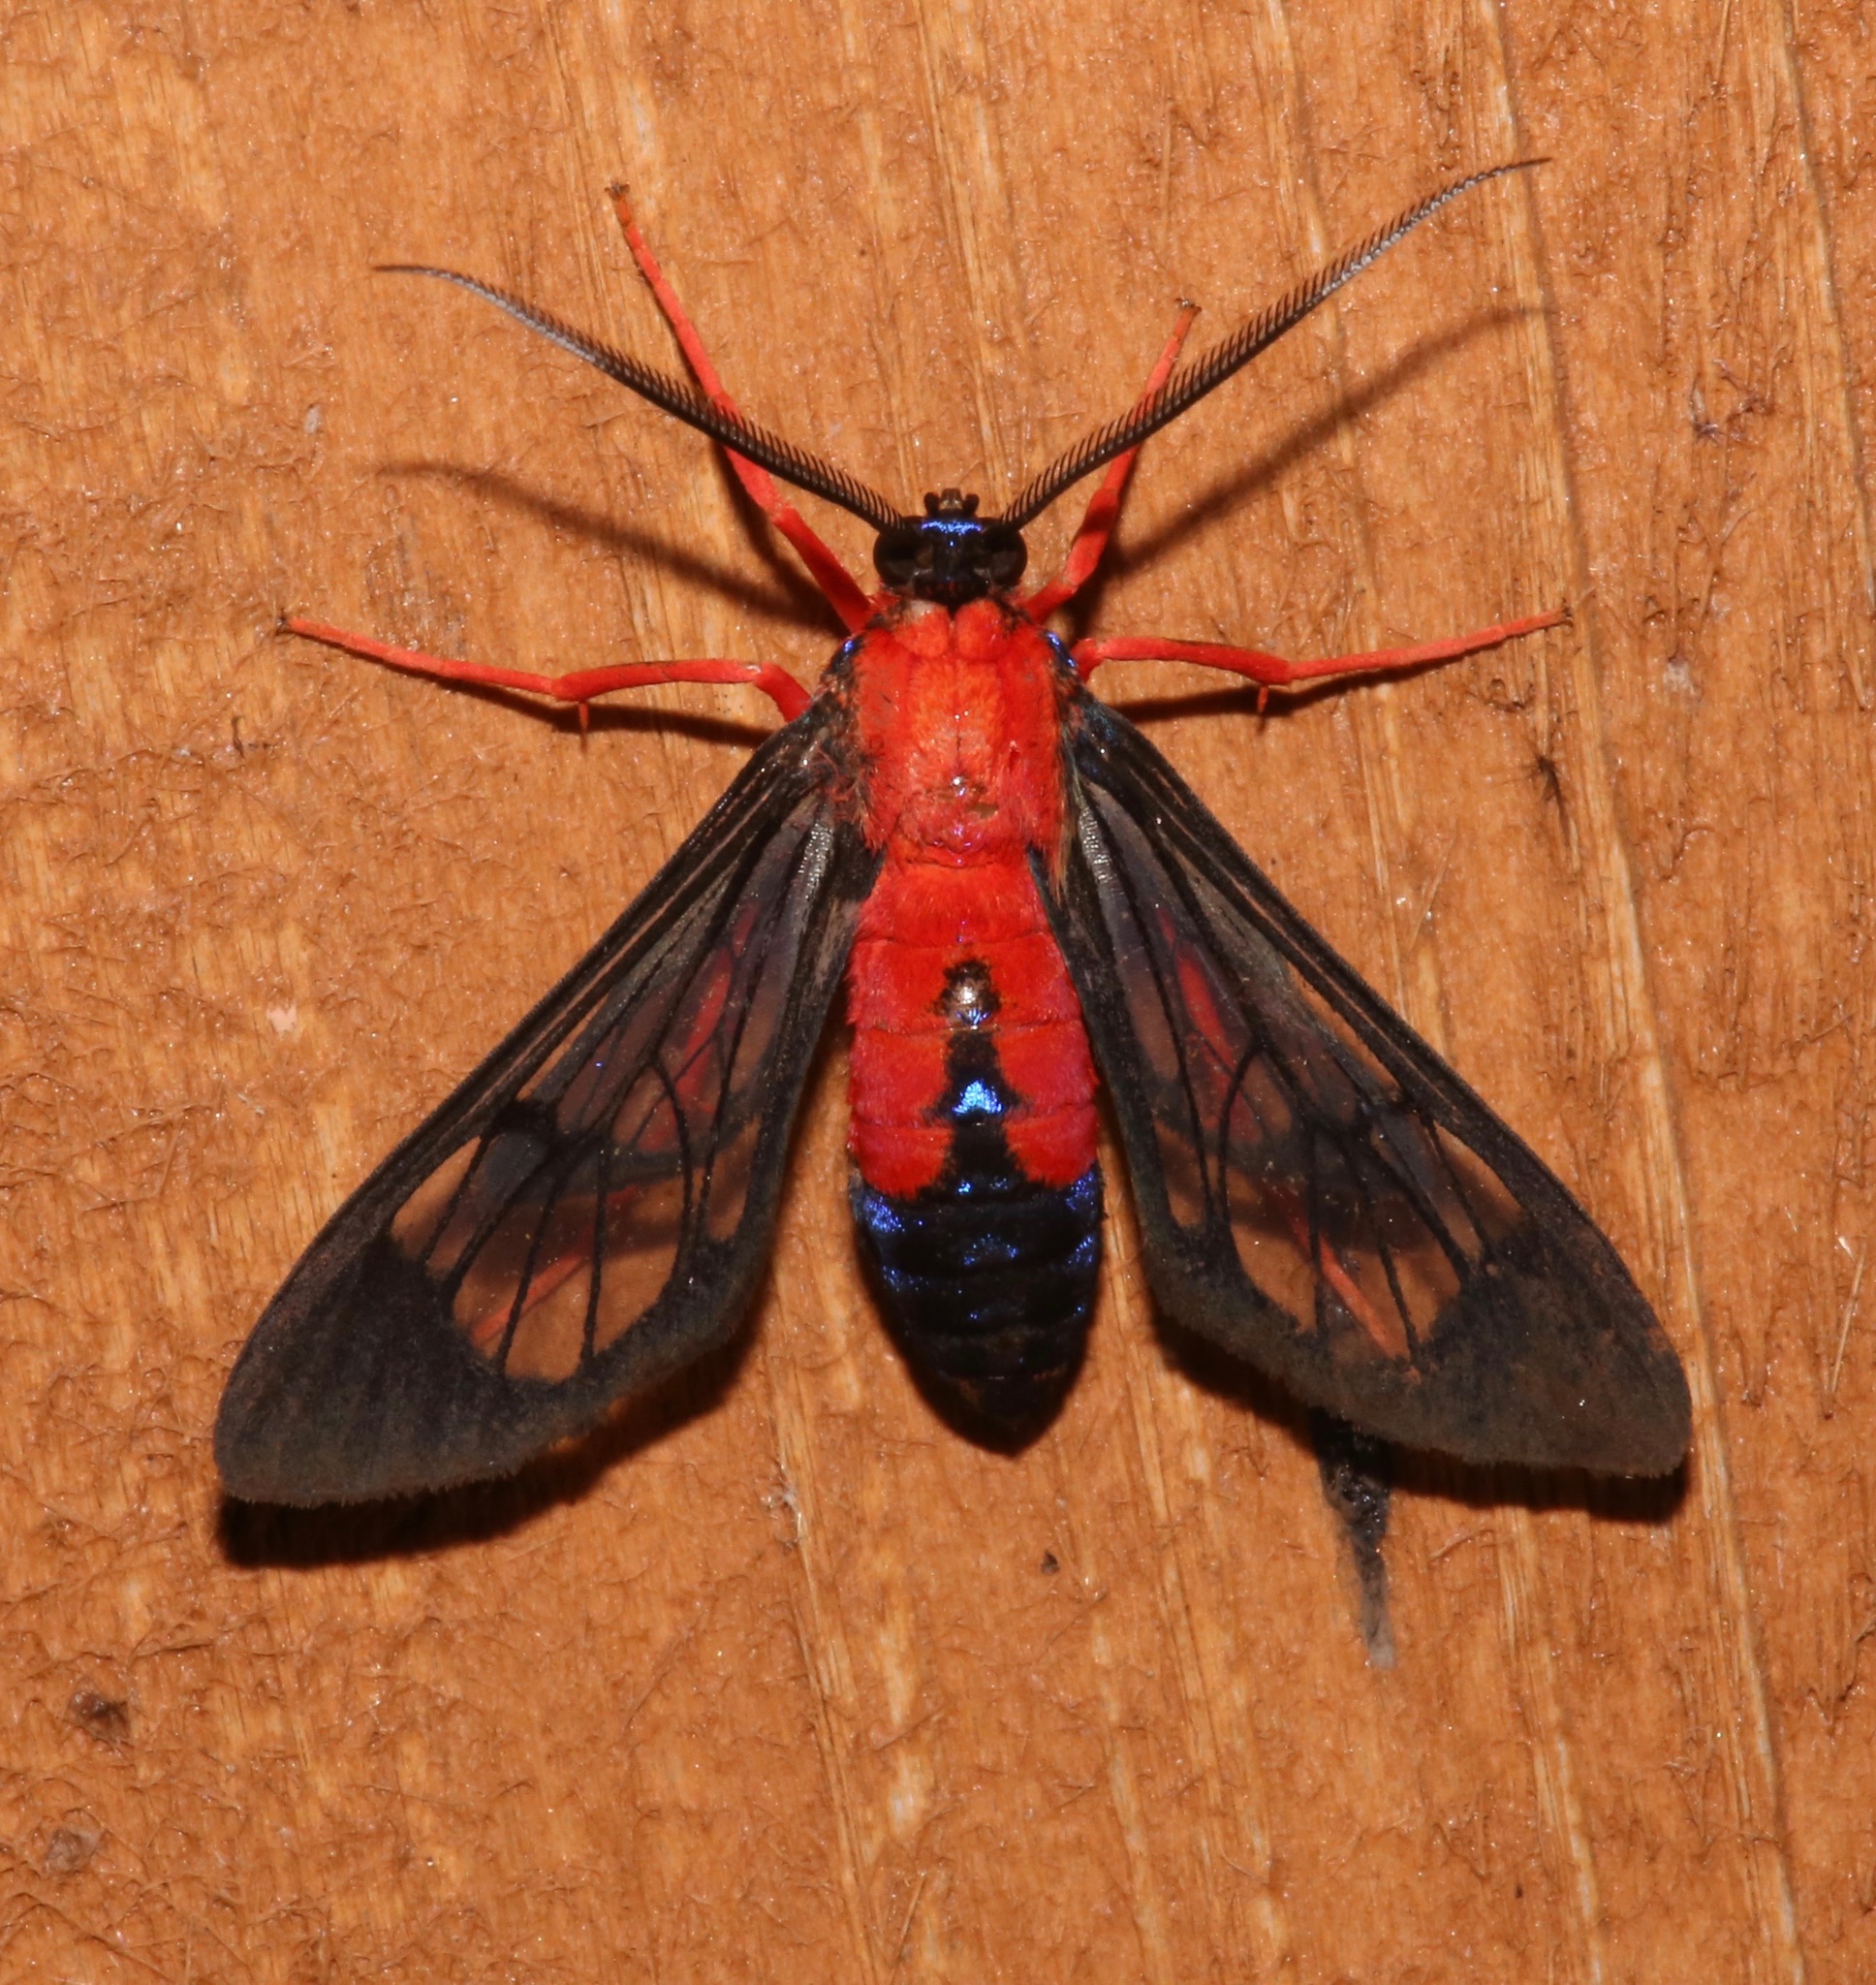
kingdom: Animalia
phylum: Arthropoda
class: Insecta
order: Lepidoptera
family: Erebidae
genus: Cosmosoma
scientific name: Cosmosoma myrodora
